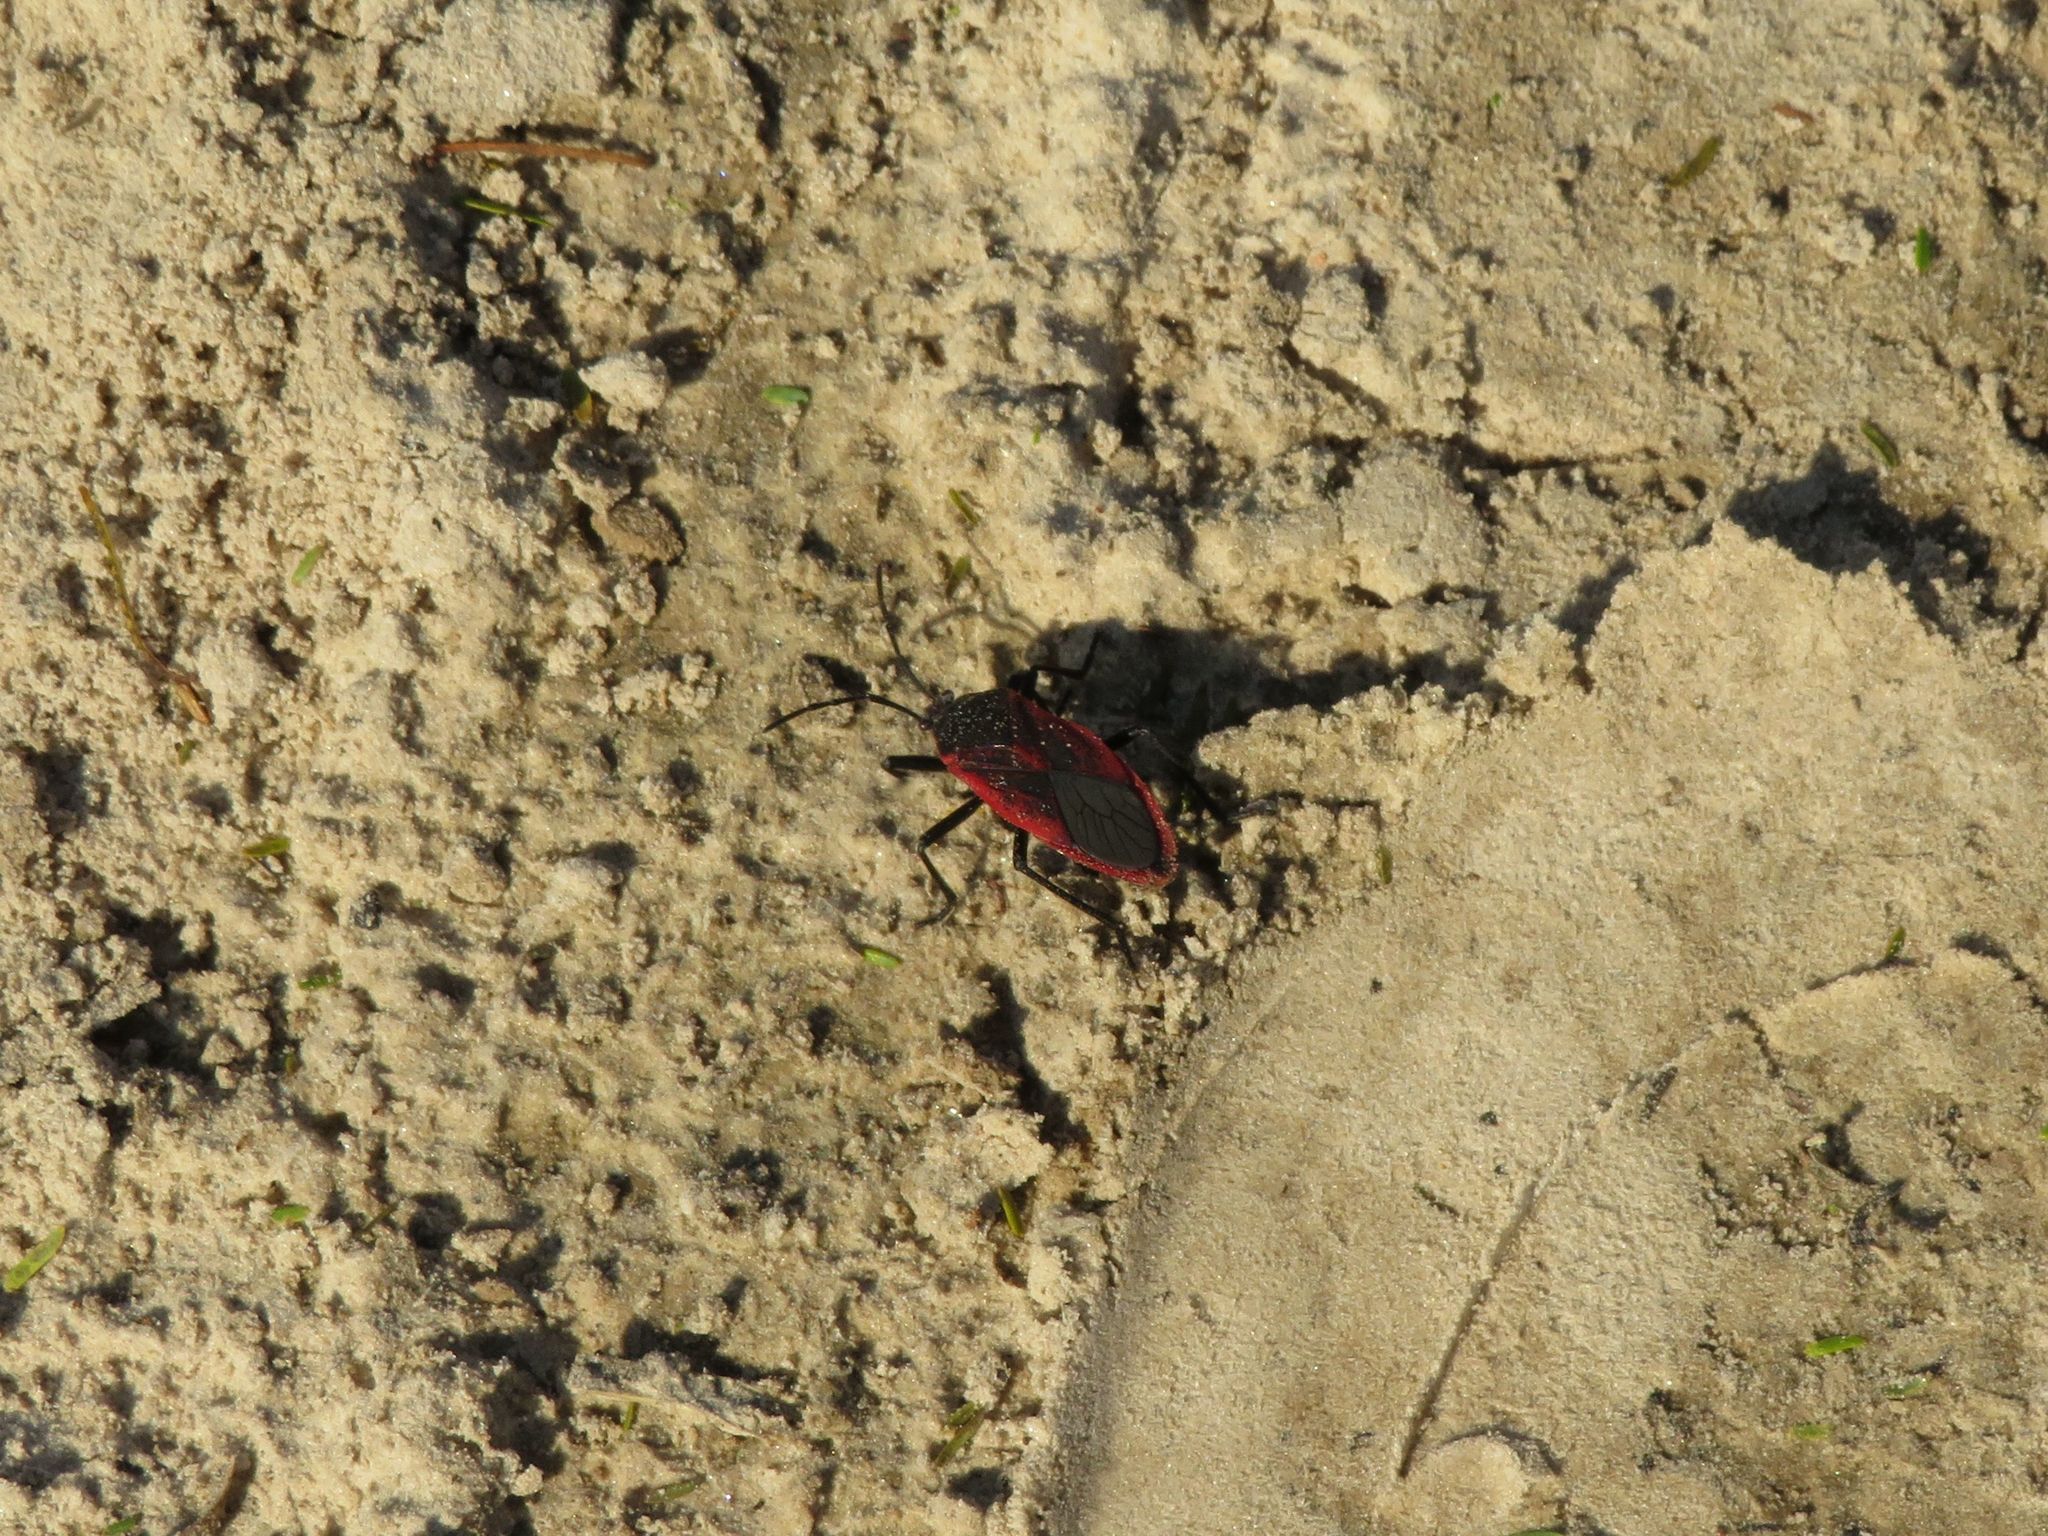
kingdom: Animalia
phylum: Arthropoda
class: Insecta
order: Hemiptera
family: Largidae
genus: Largus
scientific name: Largus rufipennis
